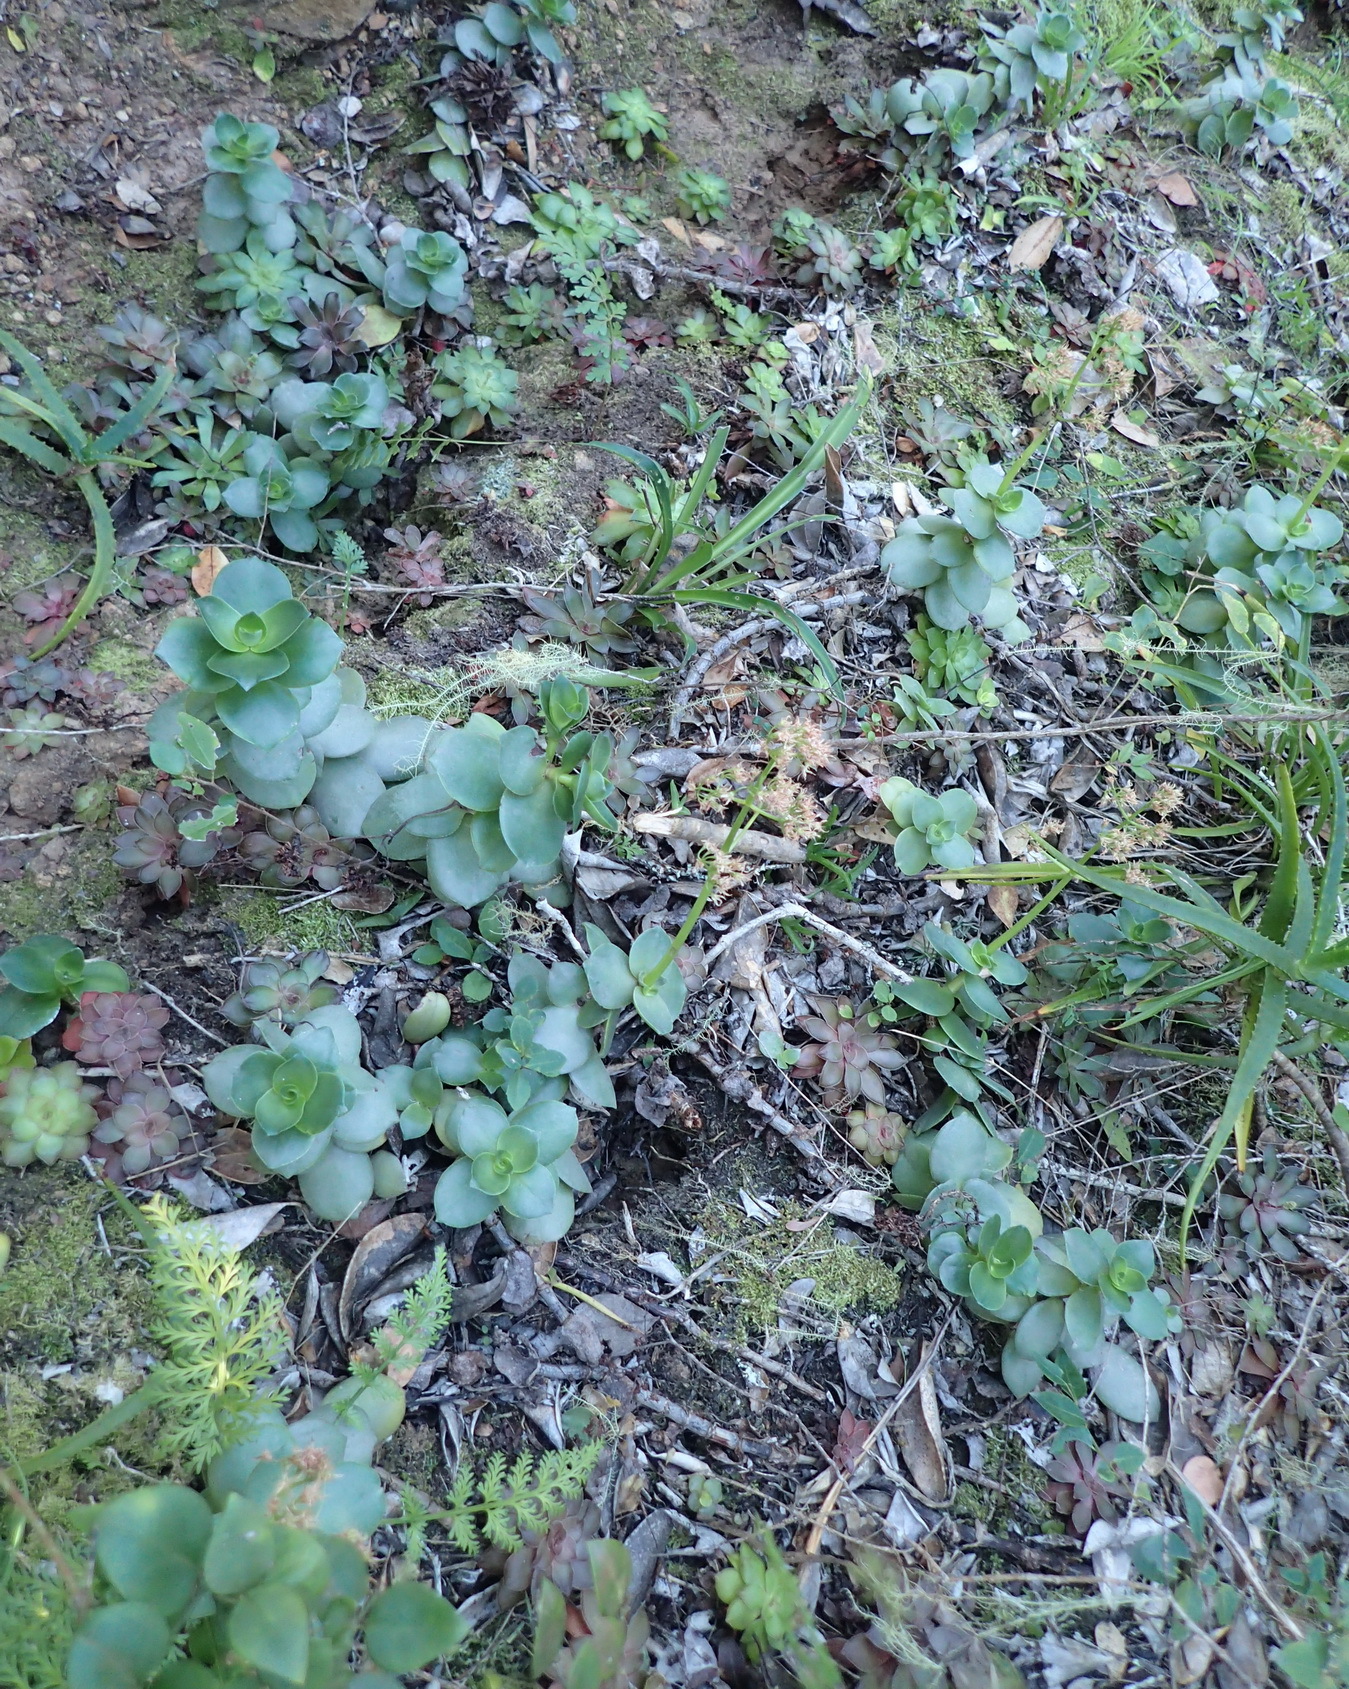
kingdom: Plantae
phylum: Tracheophyta
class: Magnoliopsida
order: Saxifragales
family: Crassulaceae
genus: Crassula
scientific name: Crassula lactea
